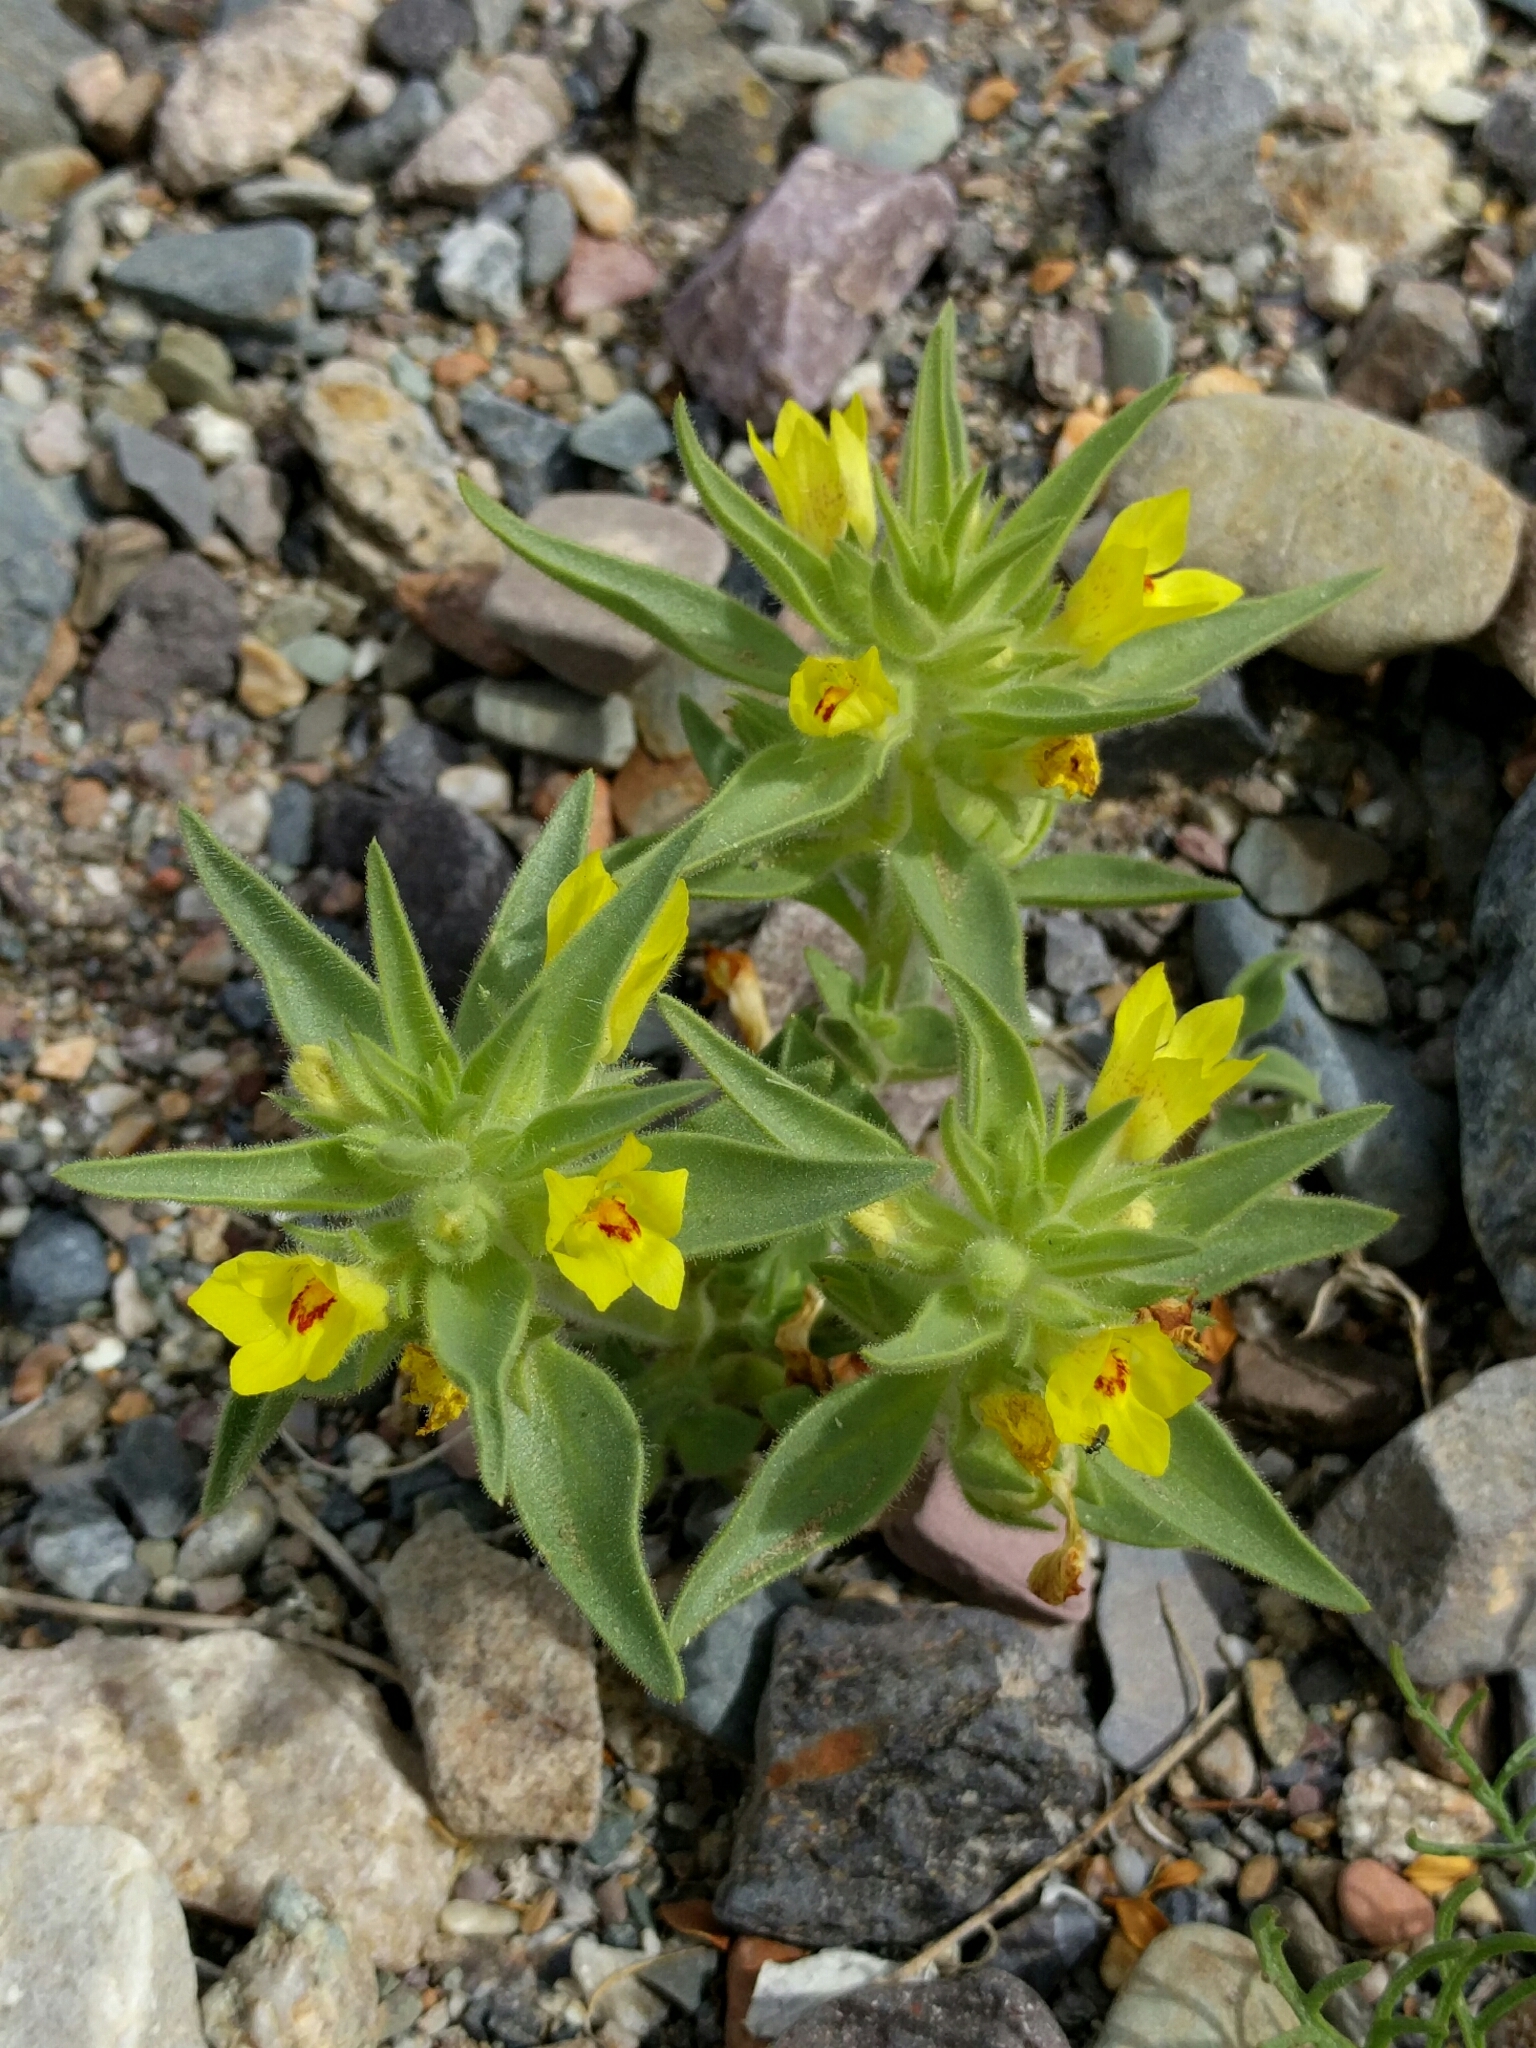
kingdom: Plantae
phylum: Tracheophyta
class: Magnoliopsida
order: Lamiales
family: Plantaginaceae
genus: Mohavea
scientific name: Mohavea breviflora
